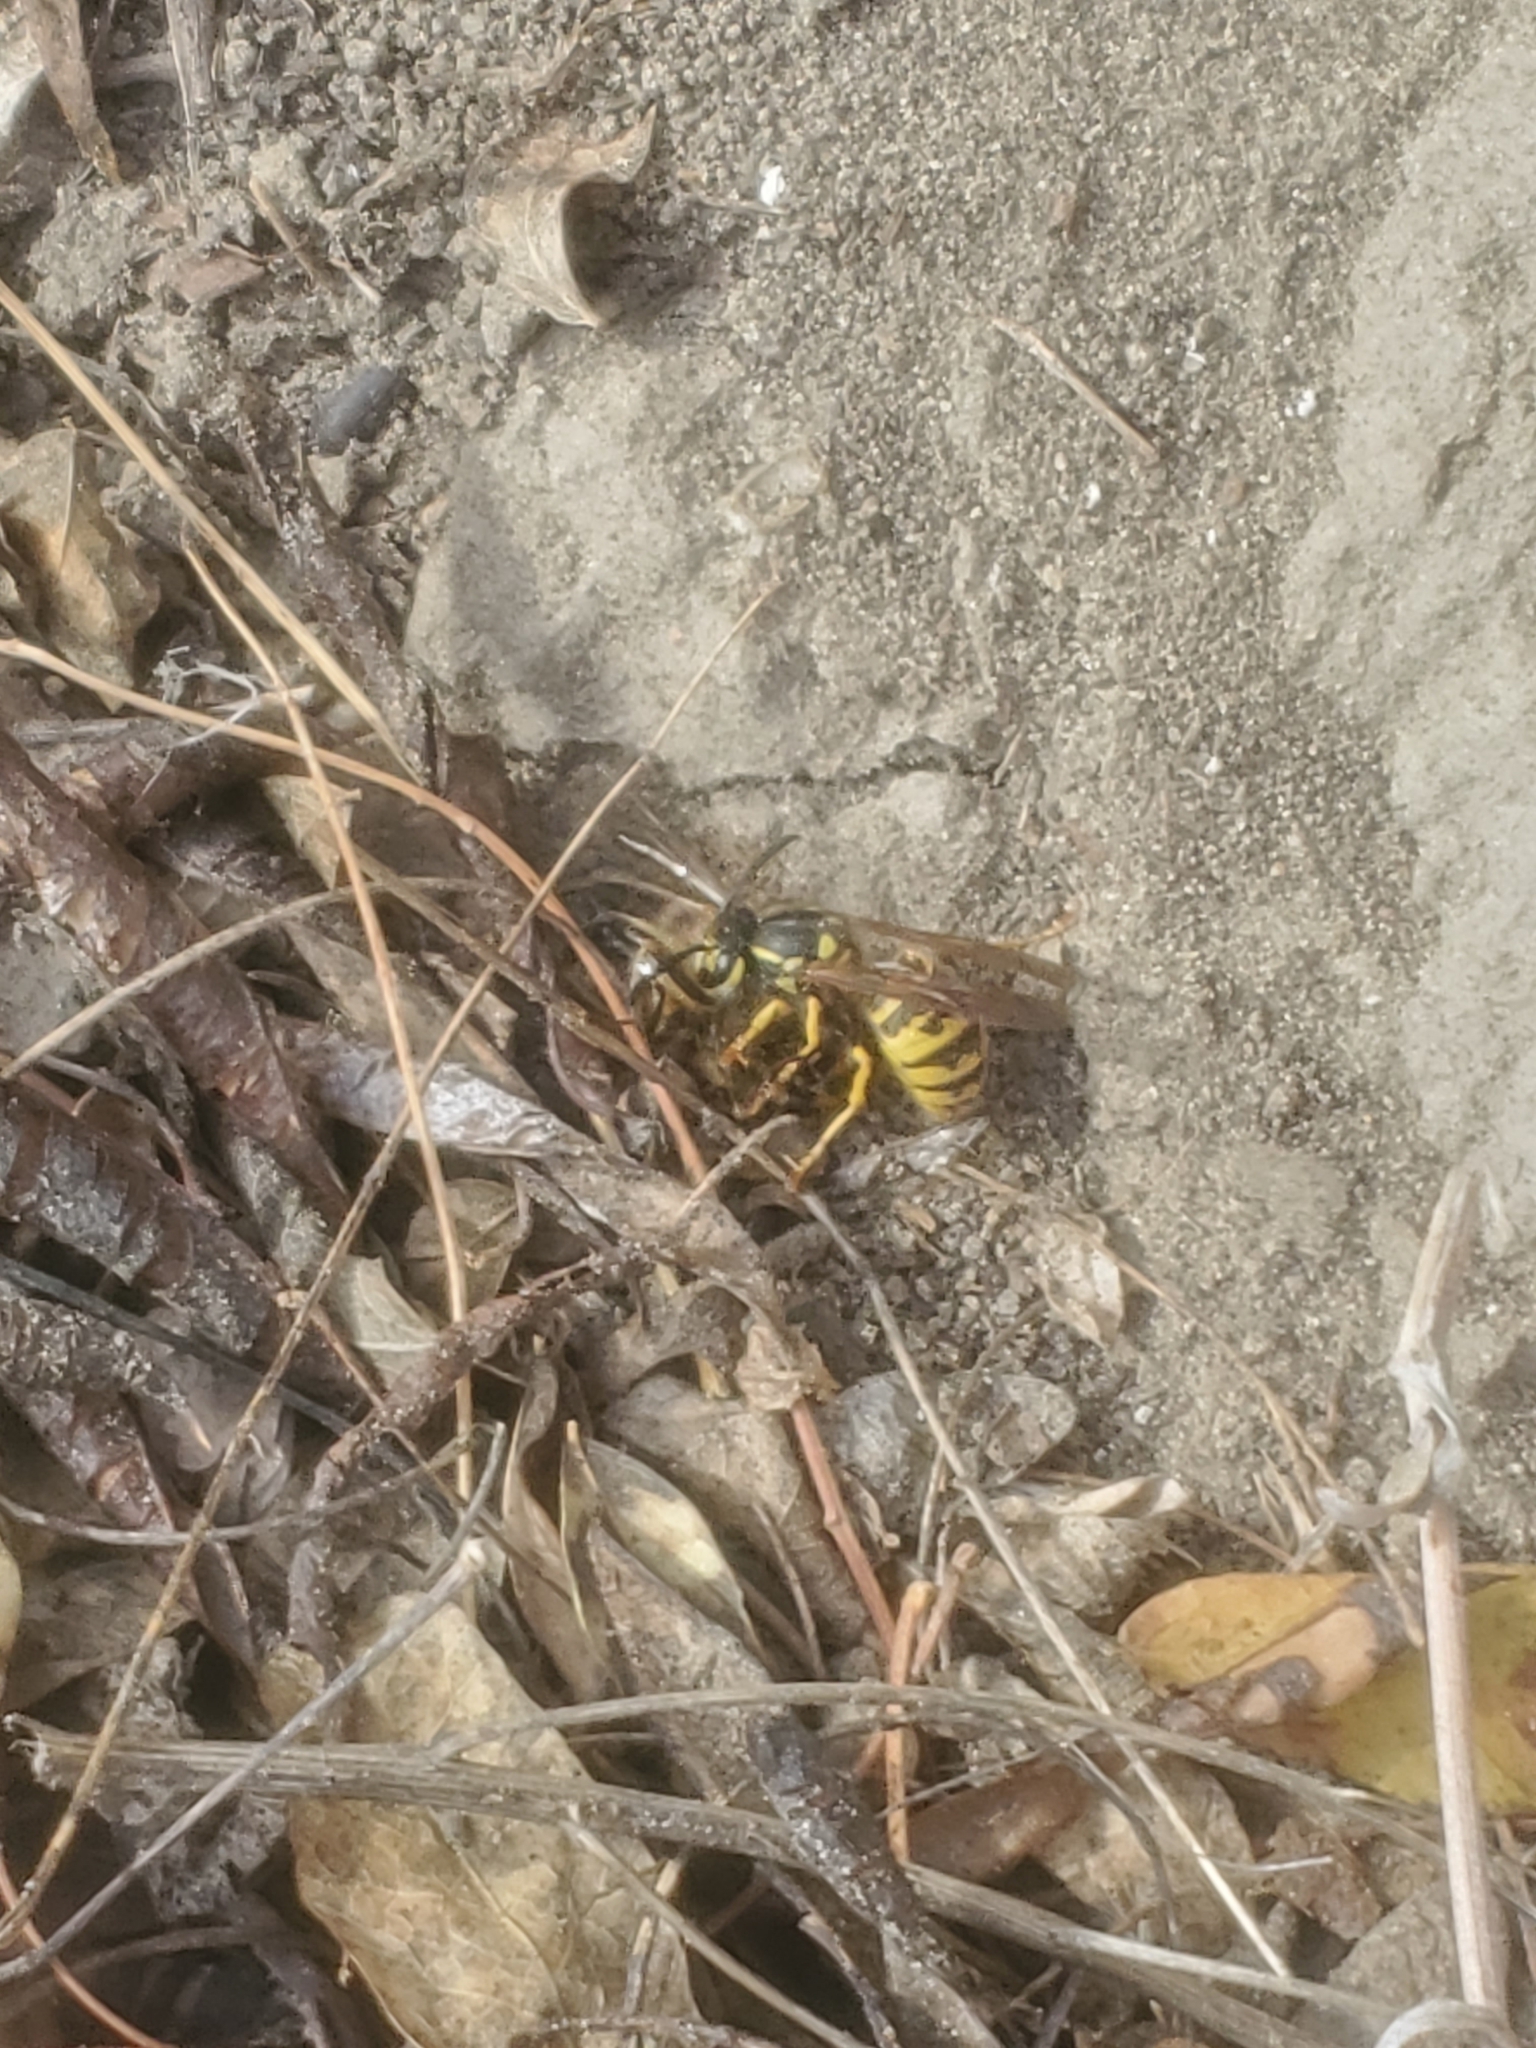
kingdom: Animalia
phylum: Arthropoda
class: Insecta
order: Hymenoptera
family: Vespidae
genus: Vespula
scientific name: Vespula
